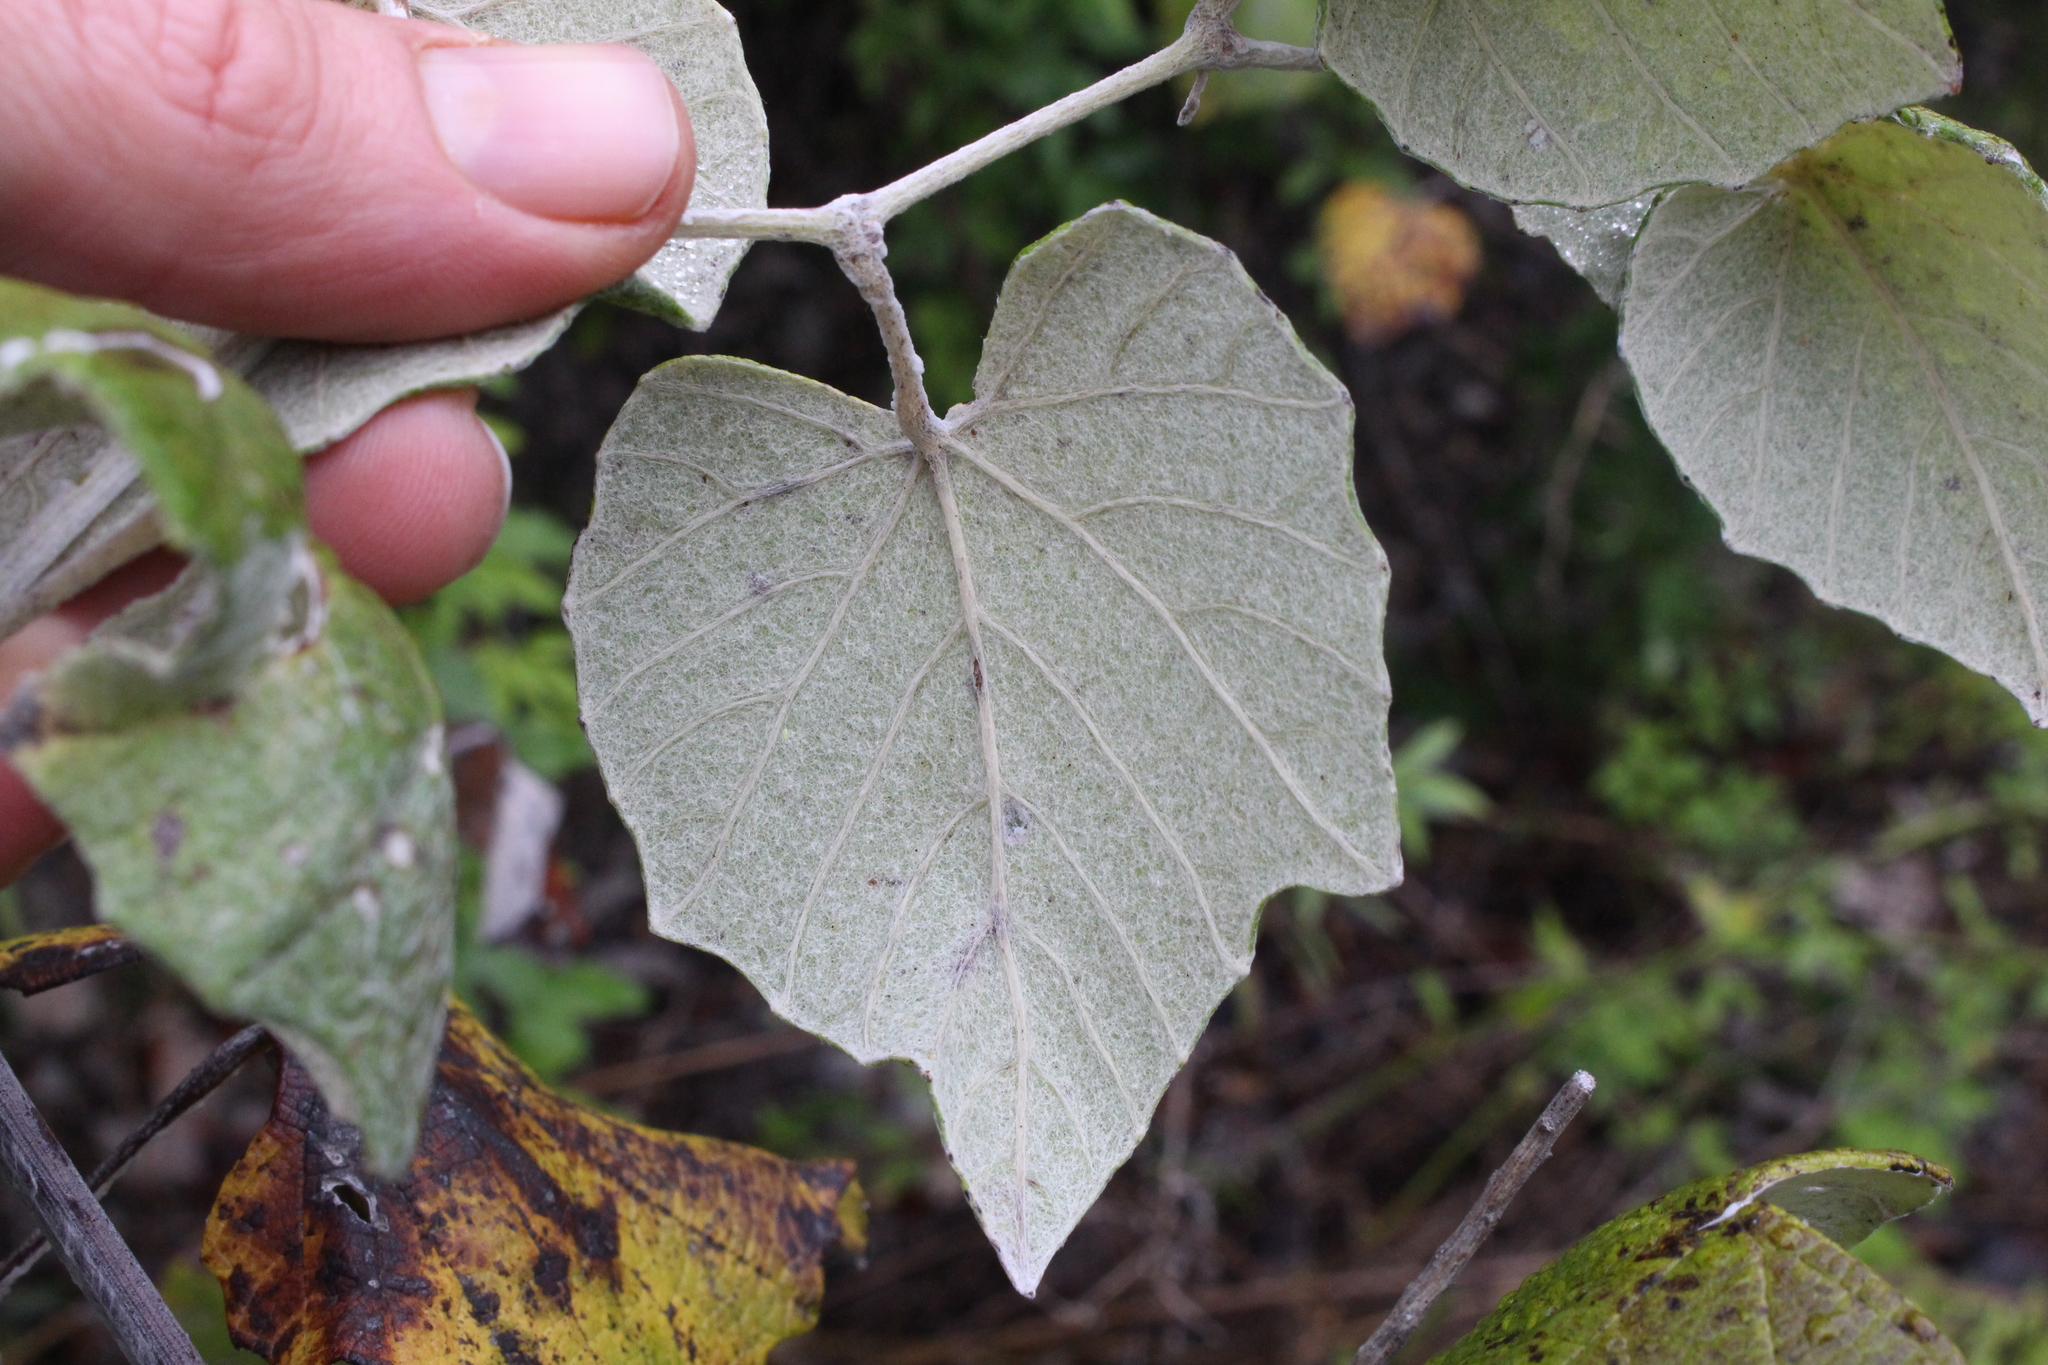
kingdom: Plantae
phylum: Tracheophyta
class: Magnoliopsida
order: Vitales
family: Vitaceae
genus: Vitis
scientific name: Vitis mustangensis
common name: Mustang grape
